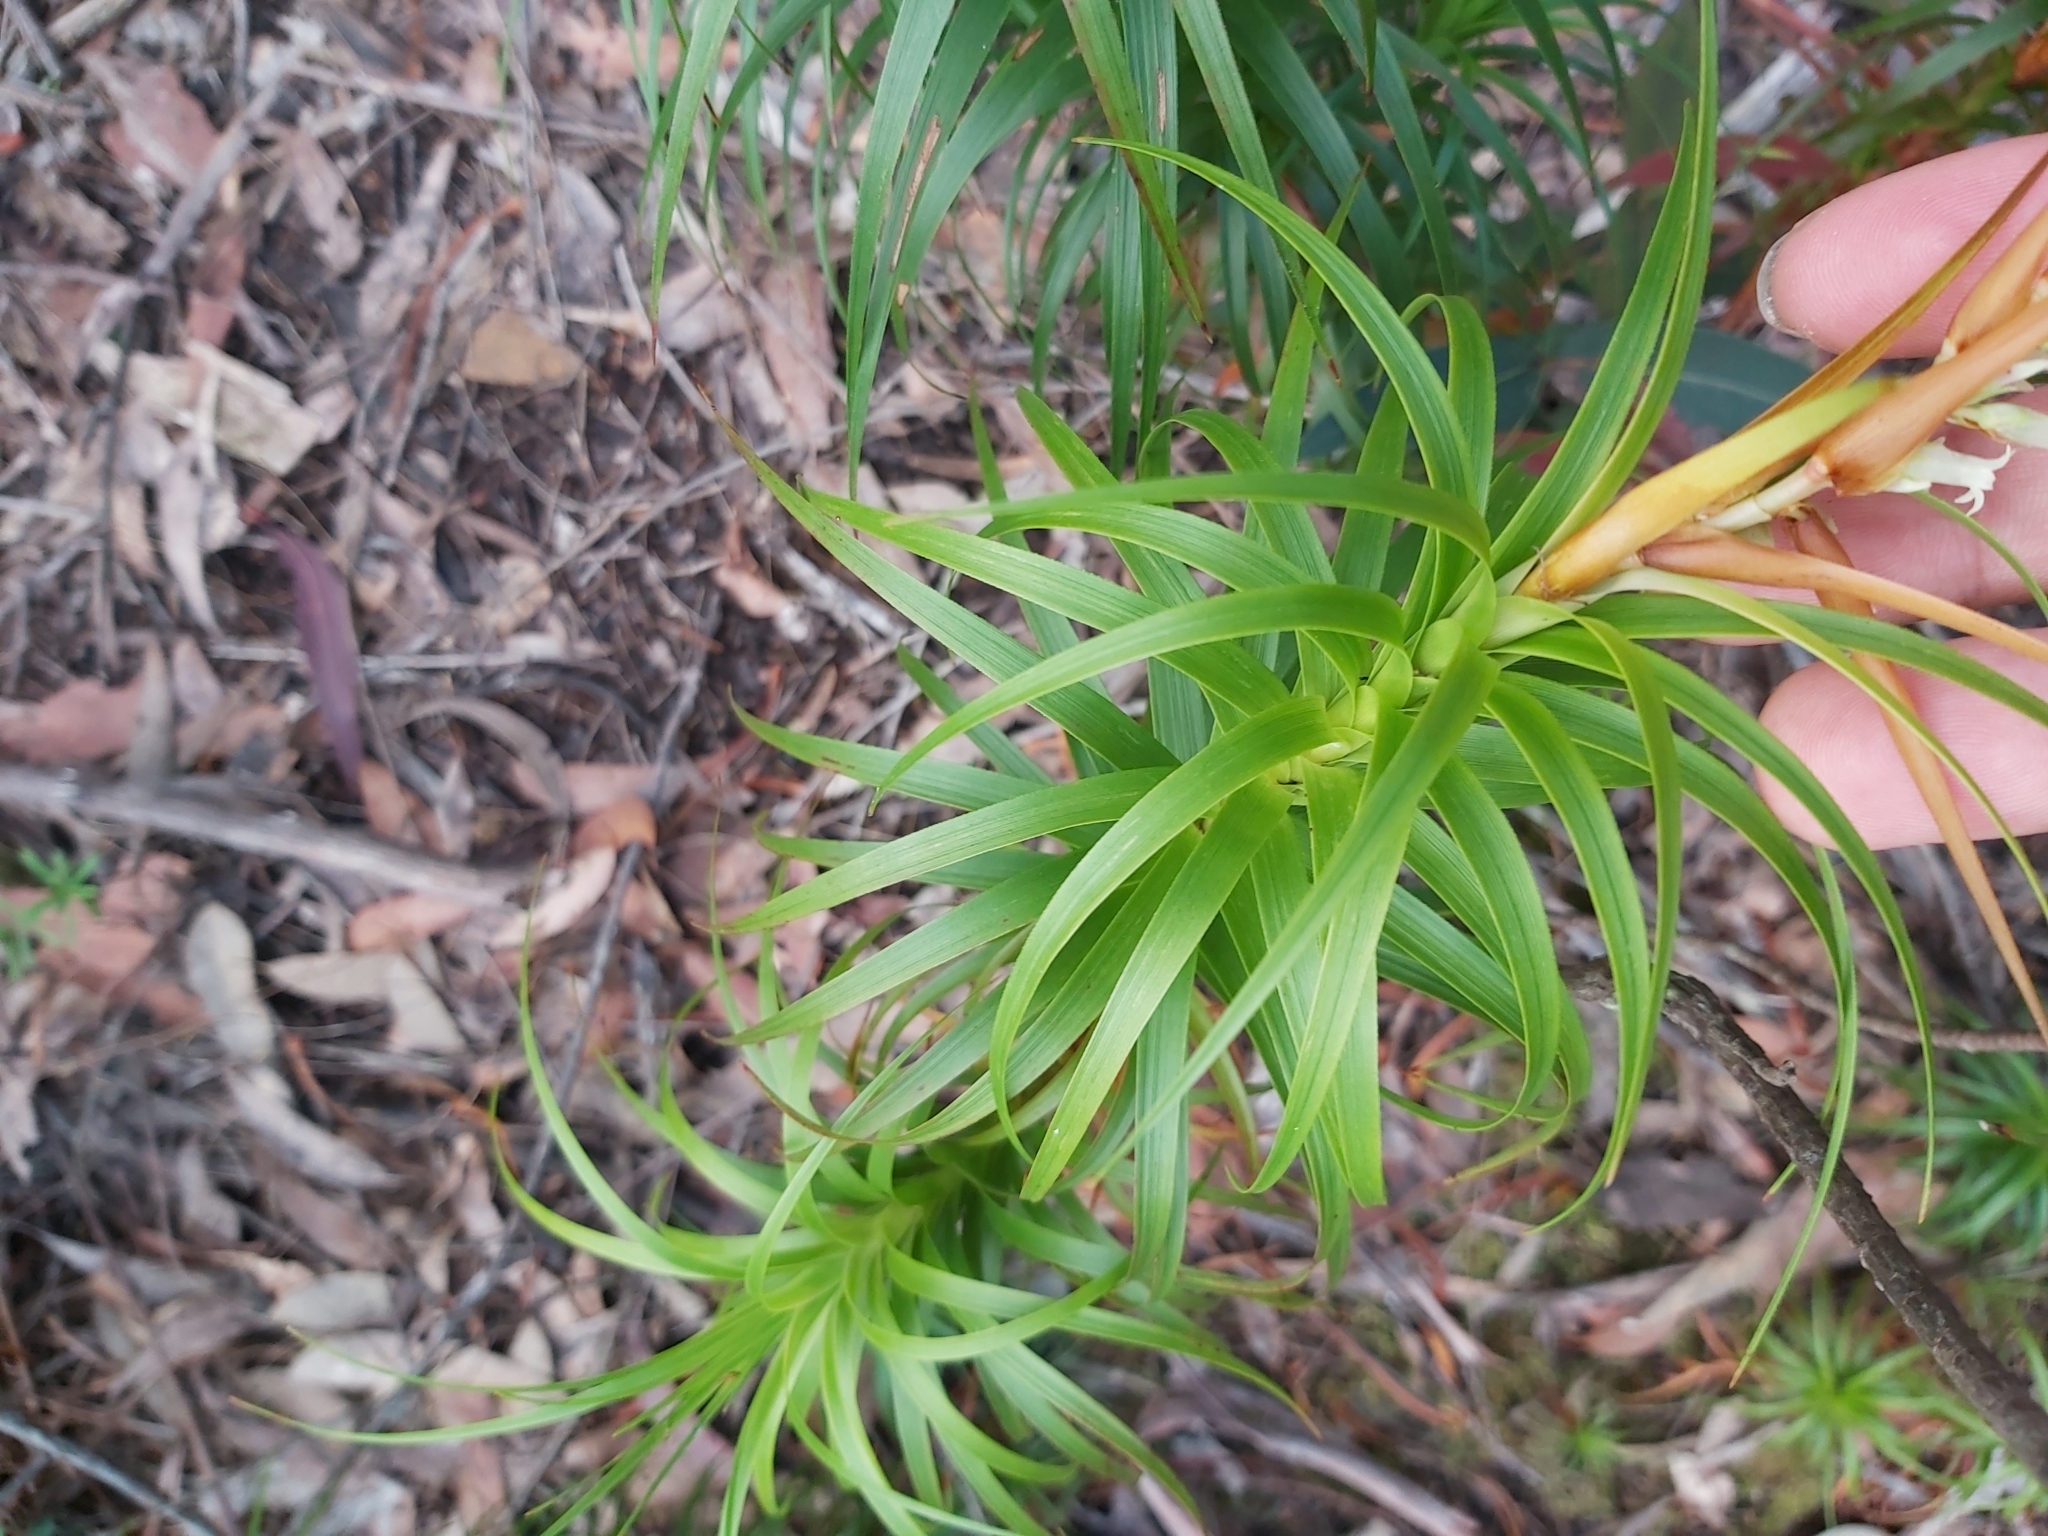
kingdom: Plantae
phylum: Tracheophyta
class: Magnoliopsida
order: Ericales
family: Ericaceae
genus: Dracophyllum
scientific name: Dracophyllum secundum
